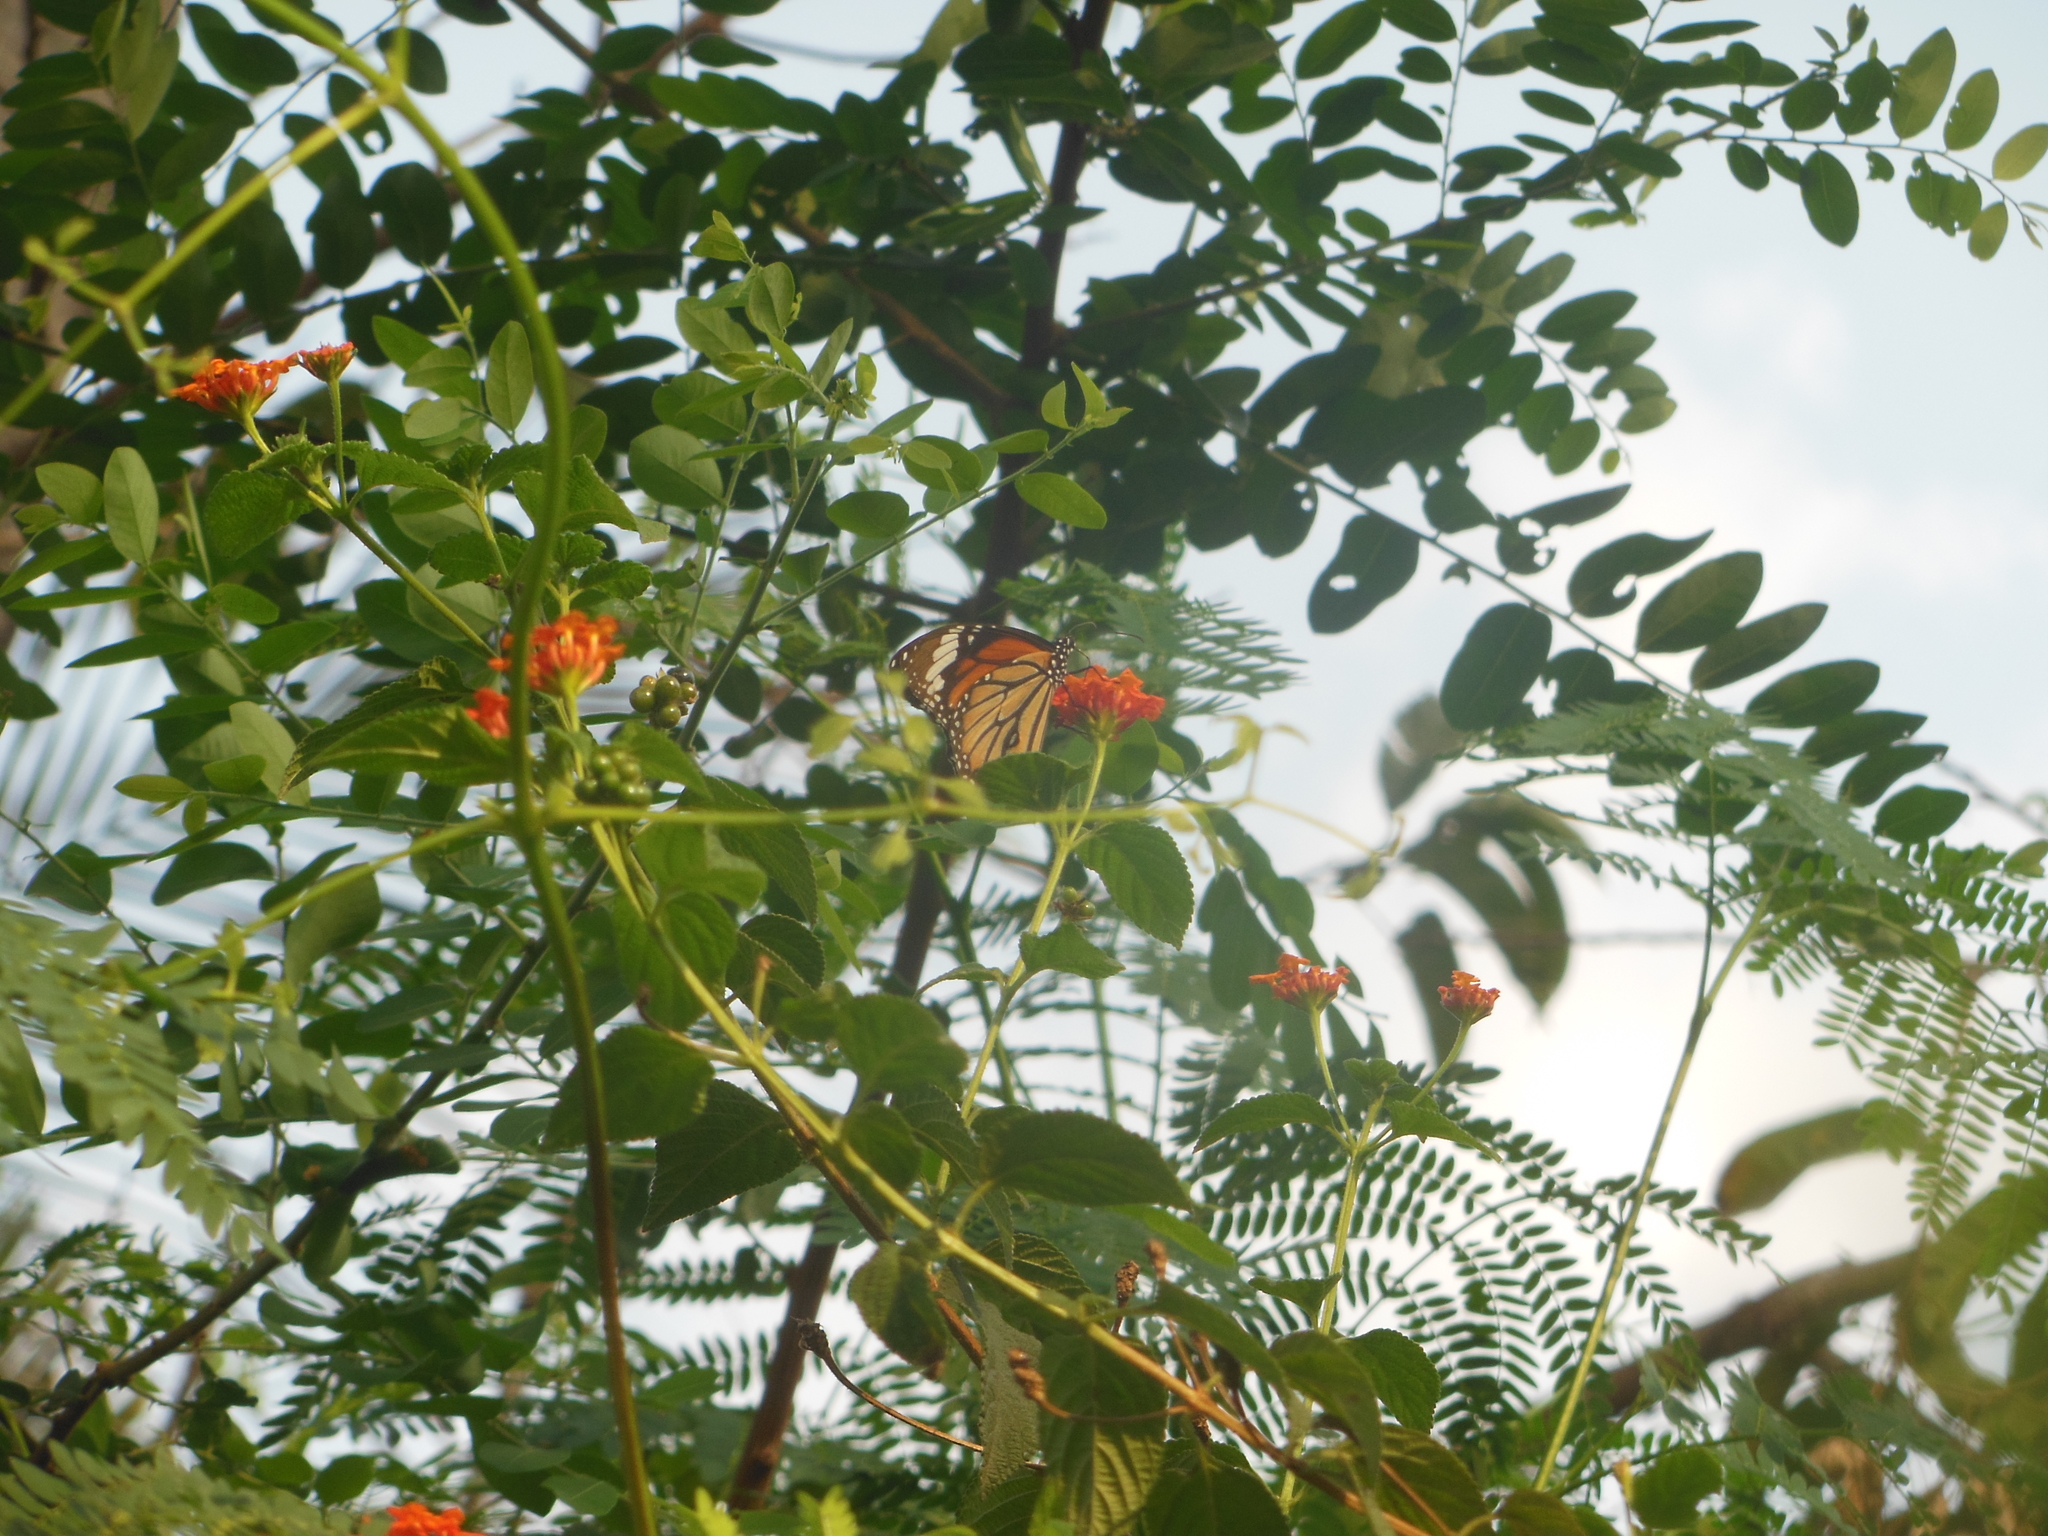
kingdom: Animalia
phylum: Arthropoda
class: Insecta
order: Lepidoptera
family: Nymphalidae
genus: Danaus
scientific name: Danaus genutia
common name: Common tiger butterfly
